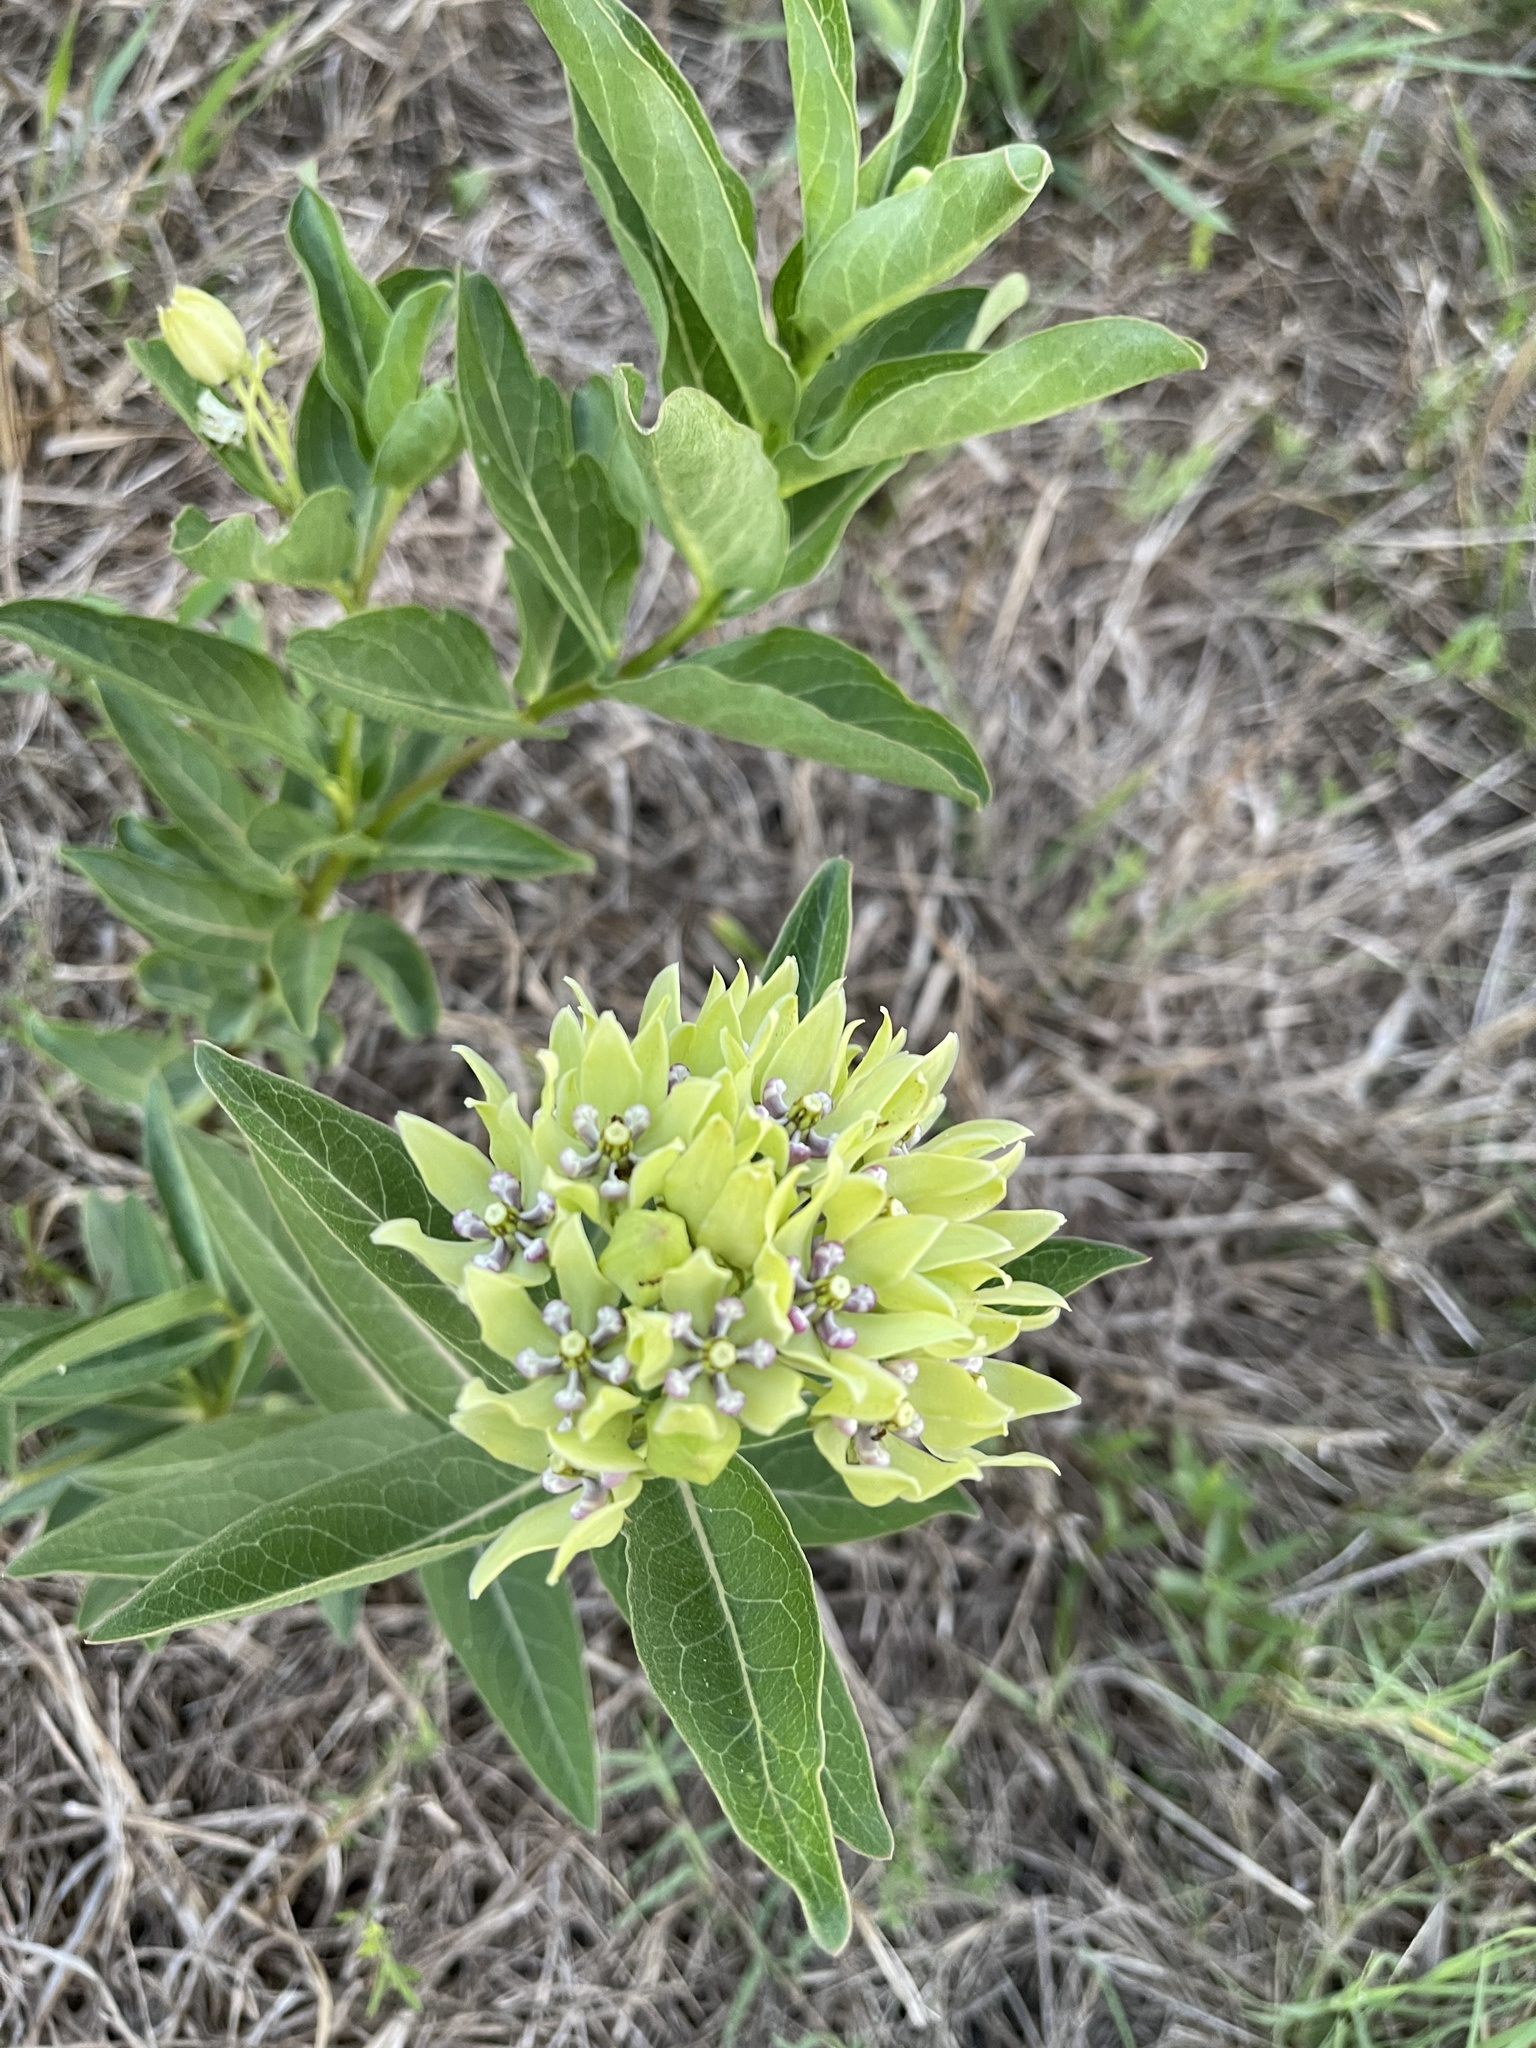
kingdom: Plantae
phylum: Tracheophyta
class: Magnoliopsida
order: Gentianales
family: Apocynaceae
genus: Asclepias
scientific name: Asclepias viridis
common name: Antelope-horns
